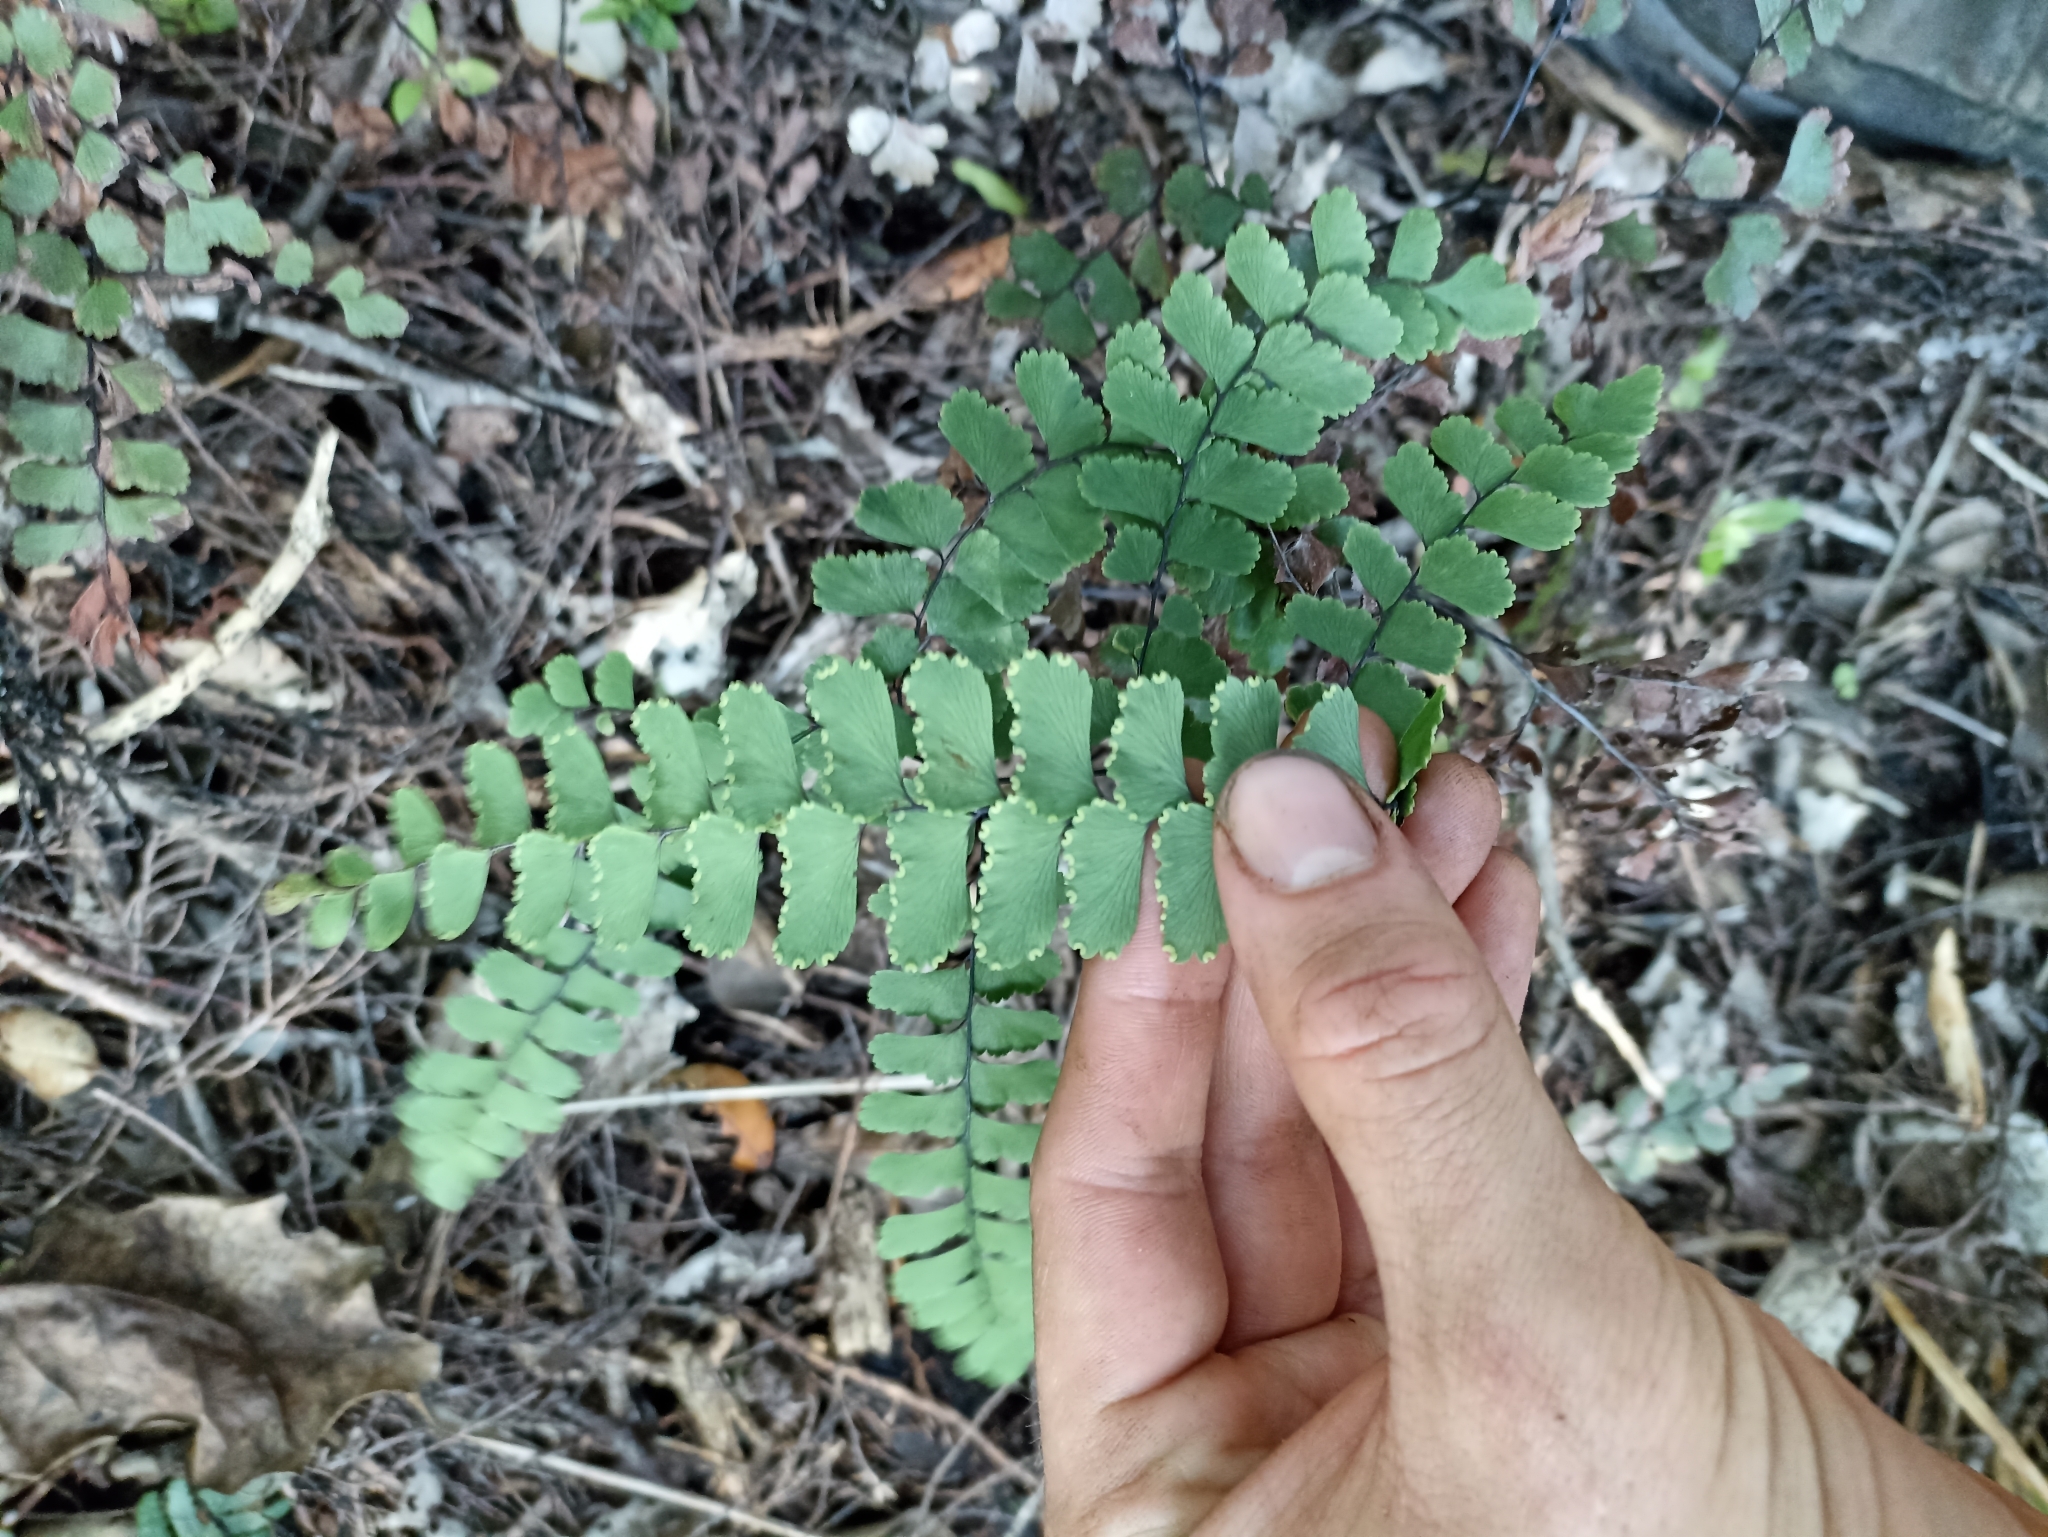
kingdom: Plantae
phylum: Tracheophyta
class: Polypodiopsida
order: Polypodiales
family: Pteridaceae
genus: Adiantum
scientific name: Adiantum cunninghamii
